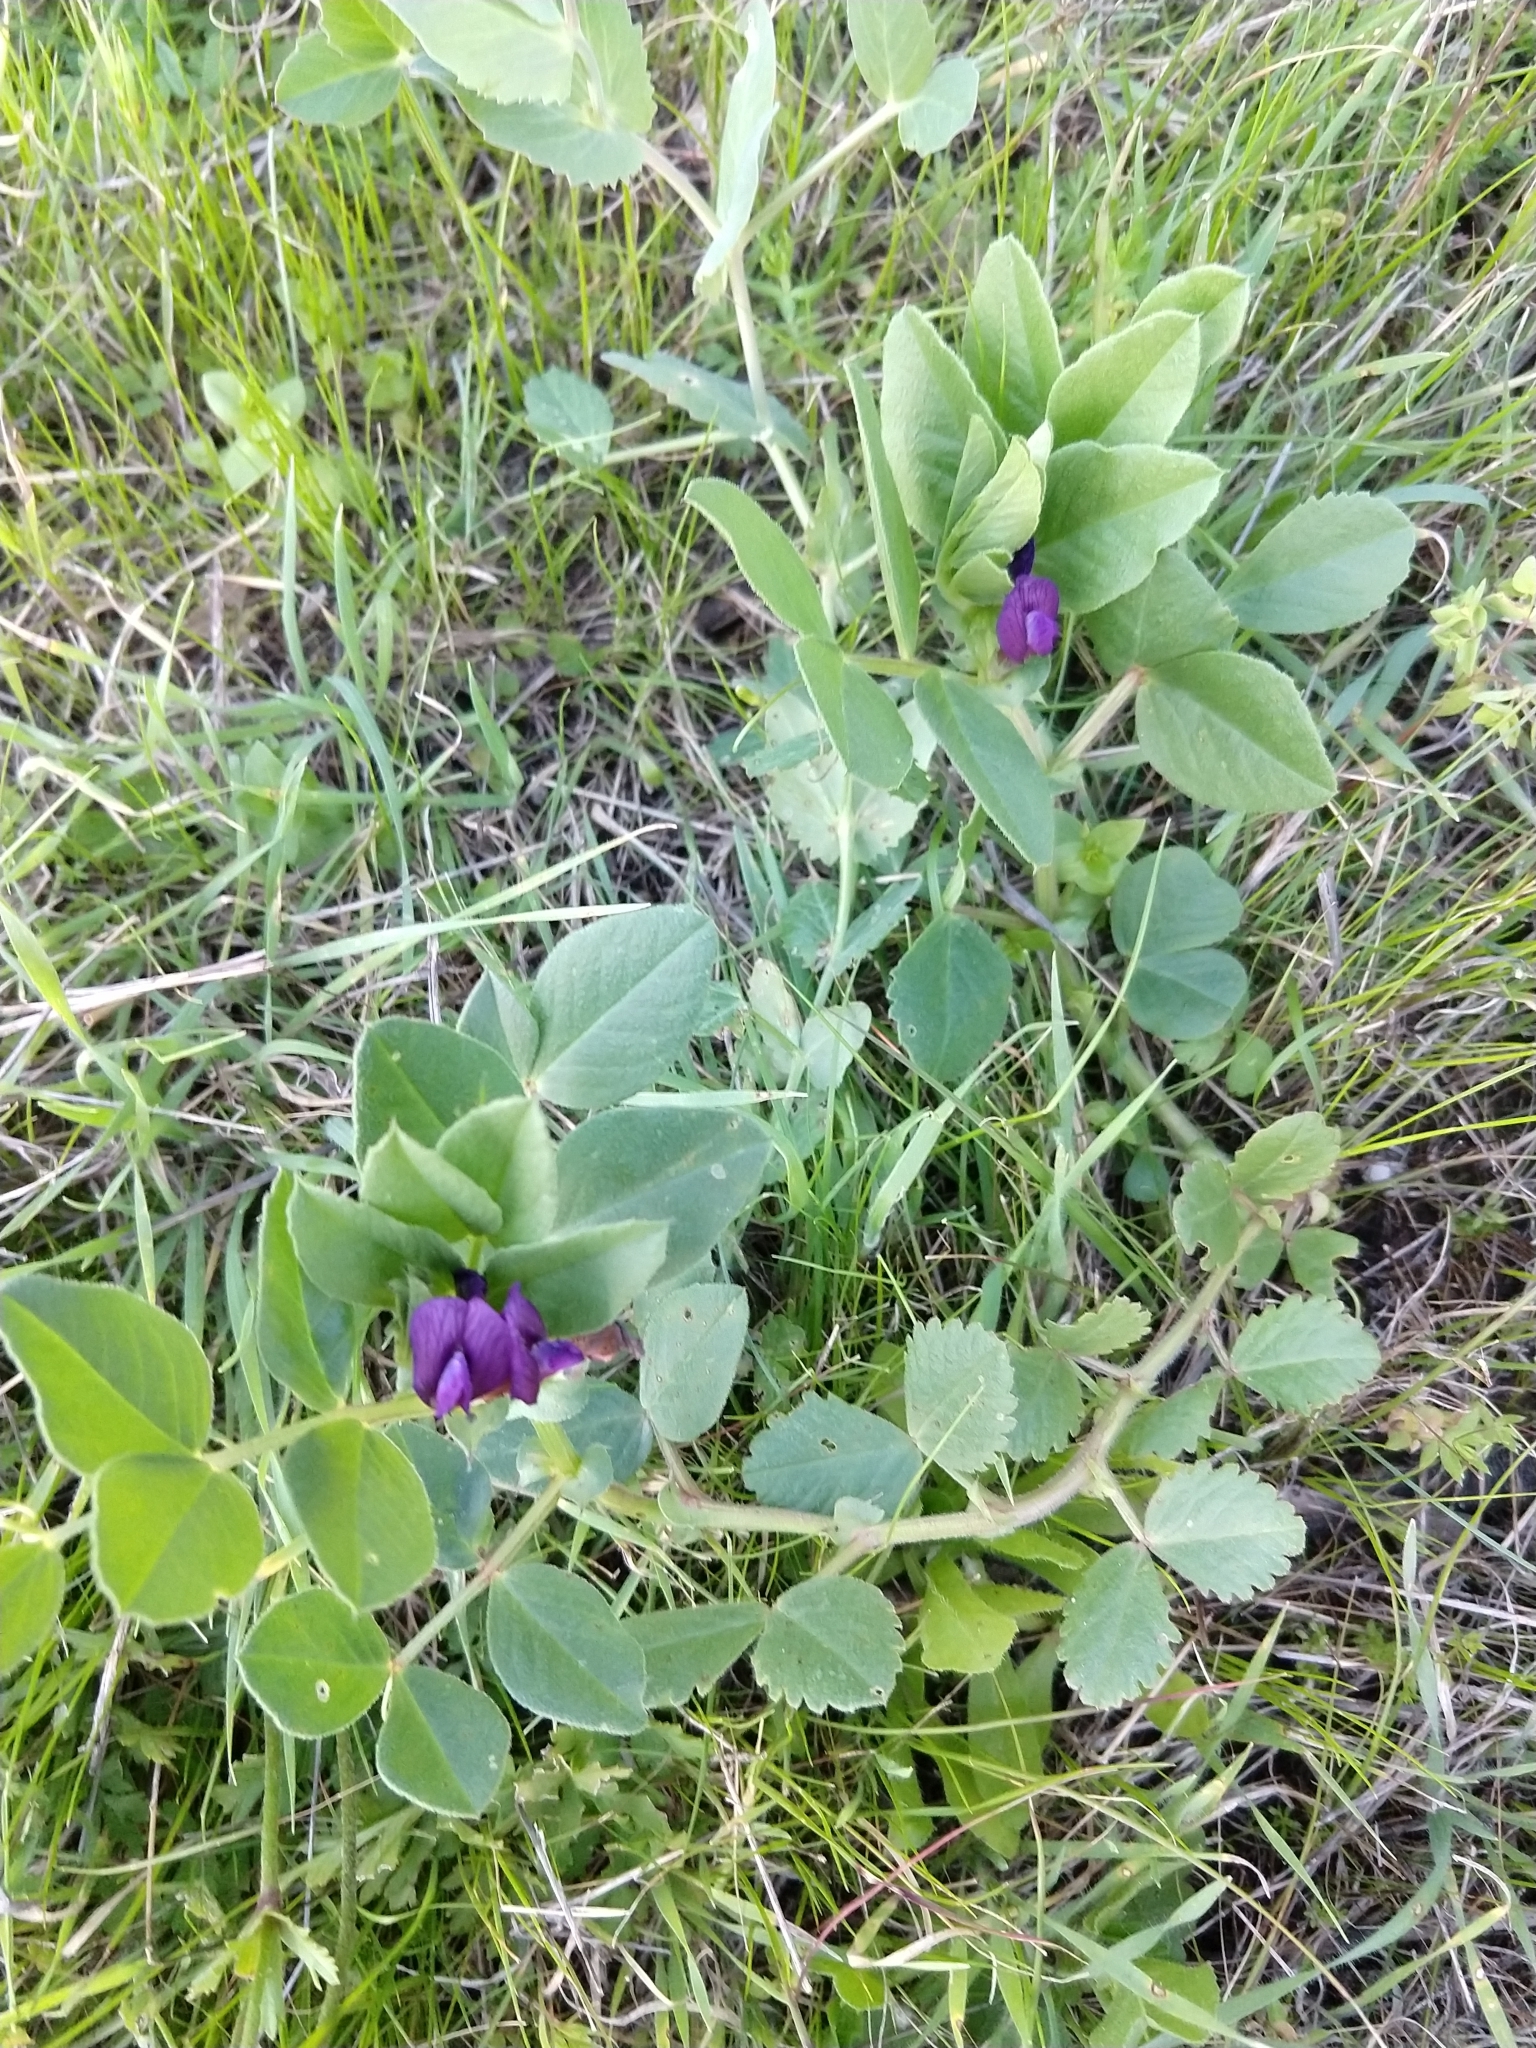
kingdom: Plantae
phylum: Tracheophyta
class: Magnoliopsida
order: Fabales
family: Fabaceae
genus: Vicia
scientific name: Vicia narbonensis
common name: Narbonne vetch
